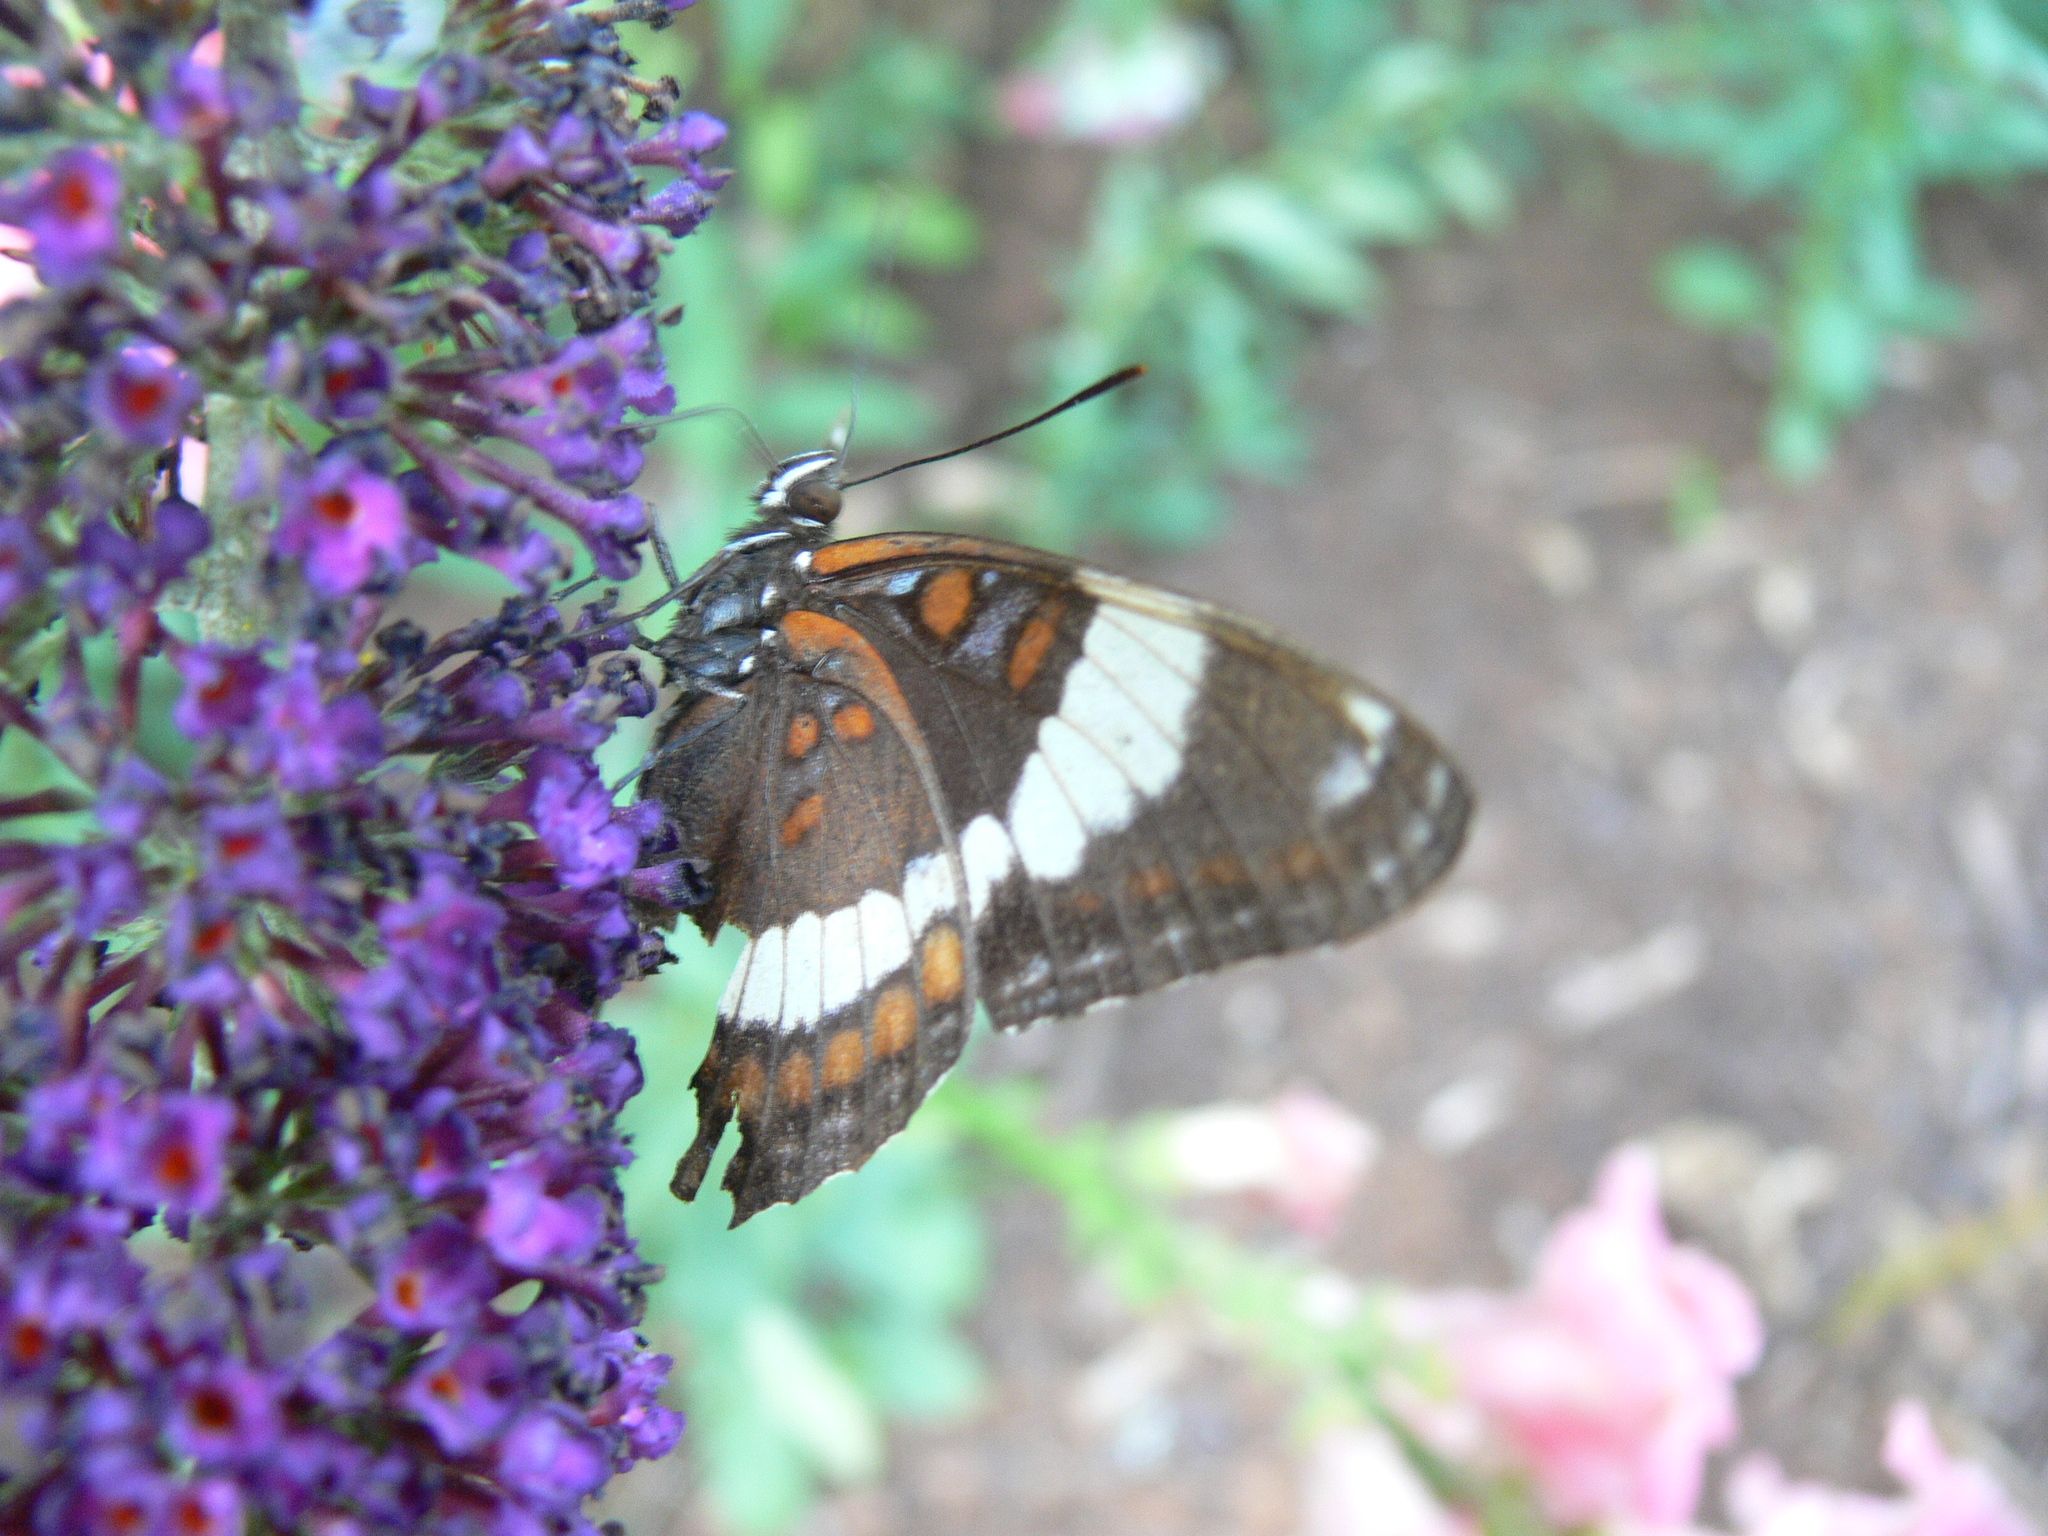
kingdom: Animalia
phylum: Arthropoda
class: Insecta
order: Lepidoptera
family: Nymphalidae
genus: Limenitis
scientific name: Limenitis arthemis
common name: Red-spotted admiral
